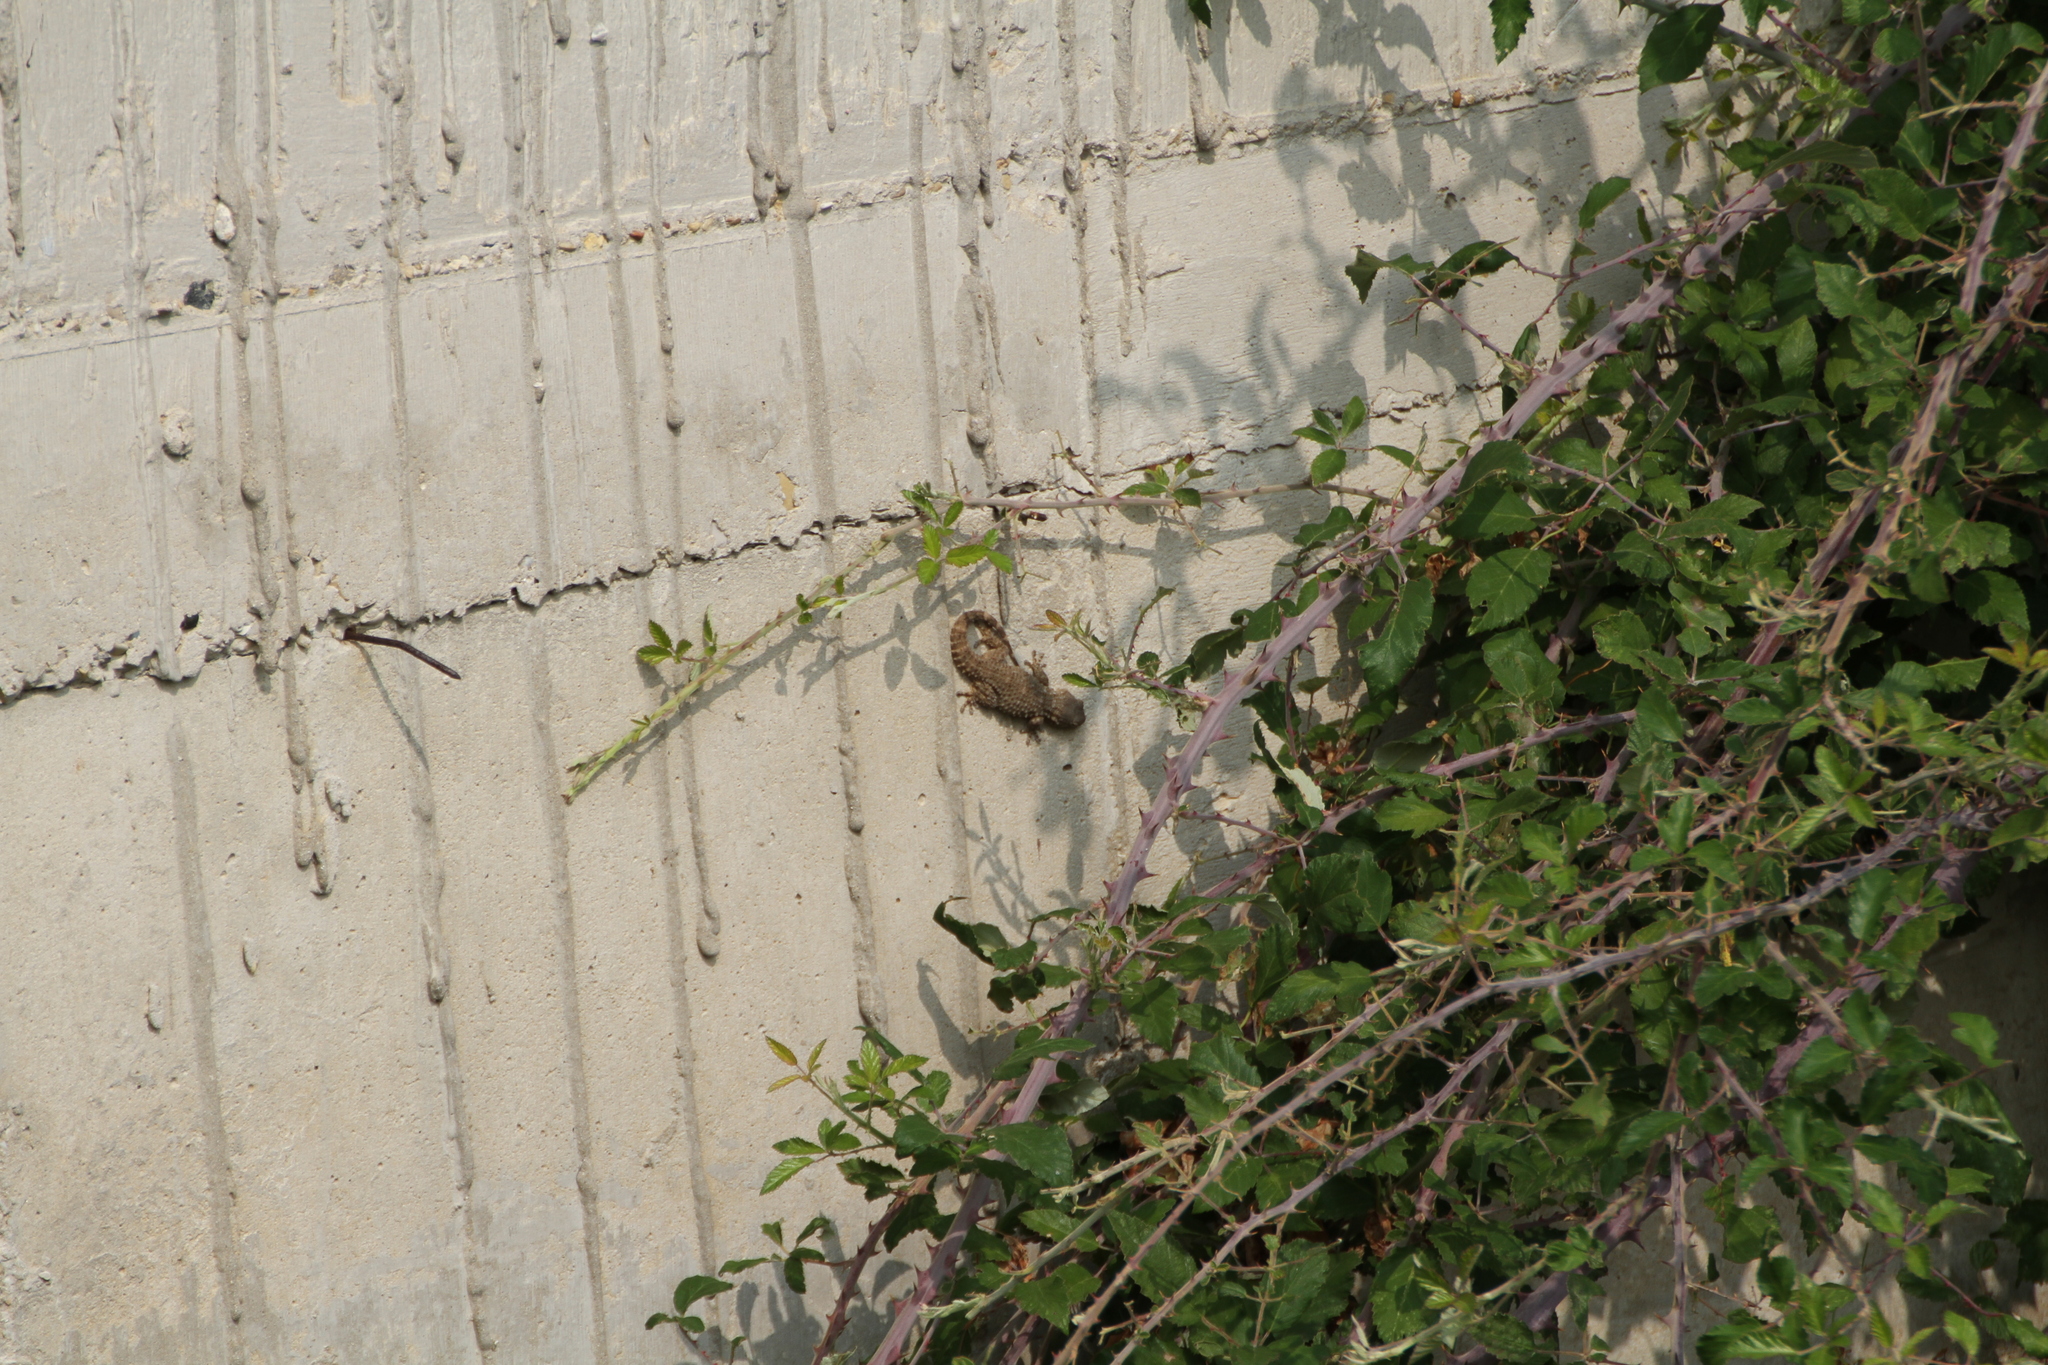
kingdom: Animalia
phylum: Chordata
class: Squamata
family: Phyllodactylidae
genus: Tarentola
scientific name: Tarentola mauritanica
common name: Moorish gecko
